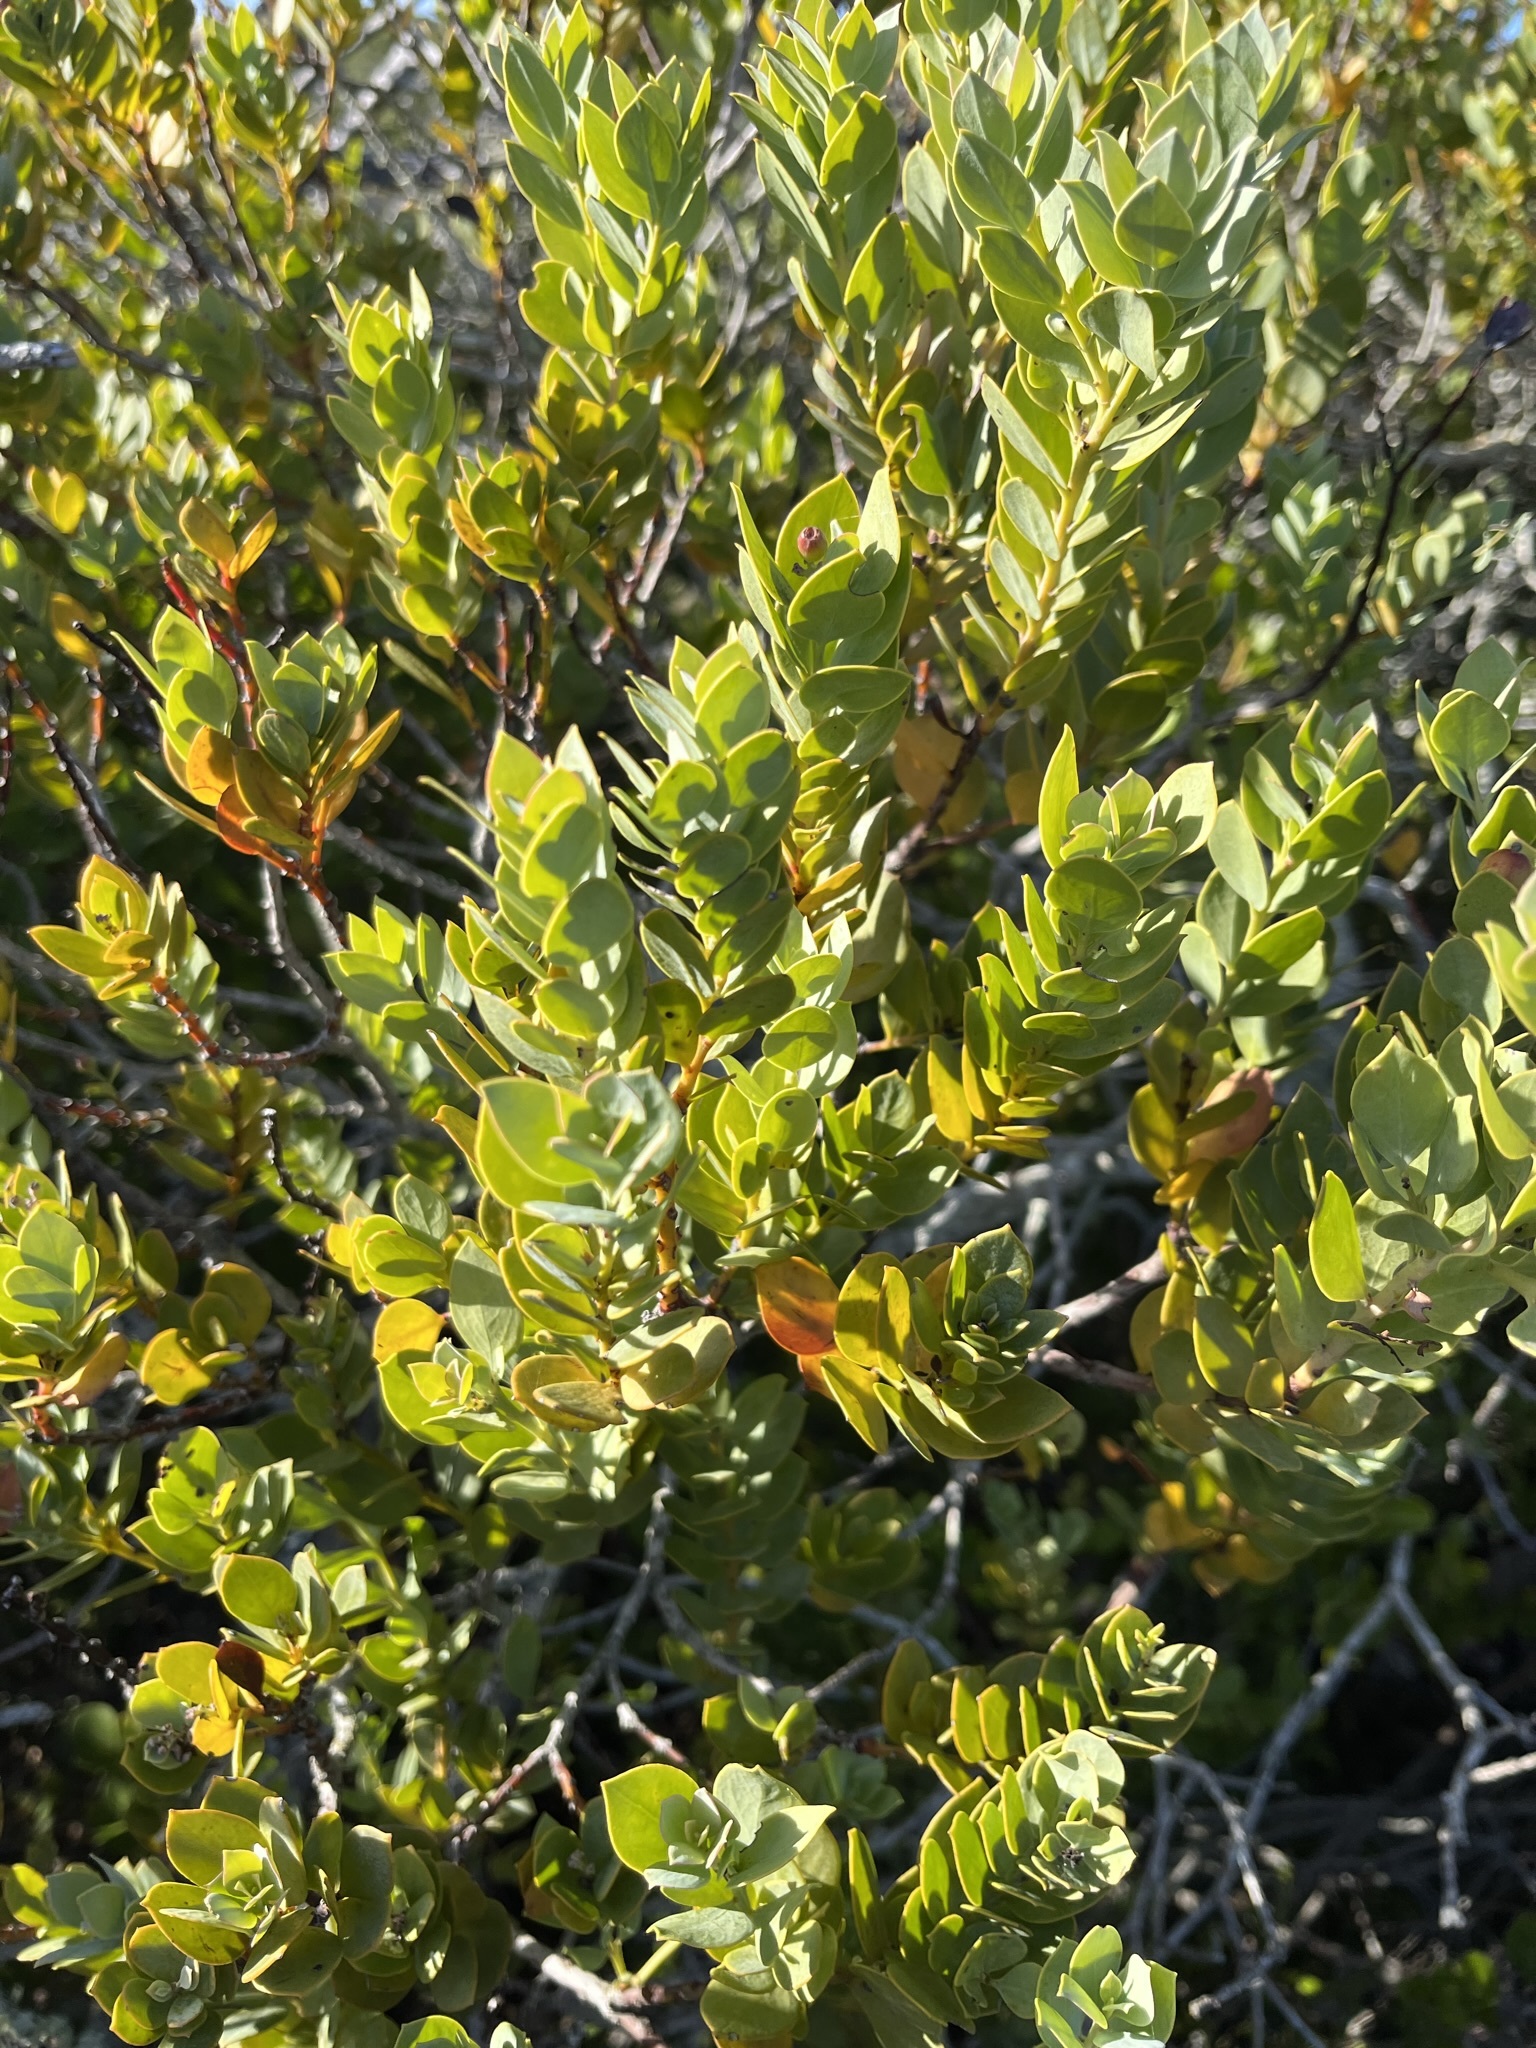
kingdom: Plantae
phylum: Tracheophyta
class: Magnoliopsida
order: Santalales
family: Santalaceae
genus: Osyris
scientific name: Osyris compressa
